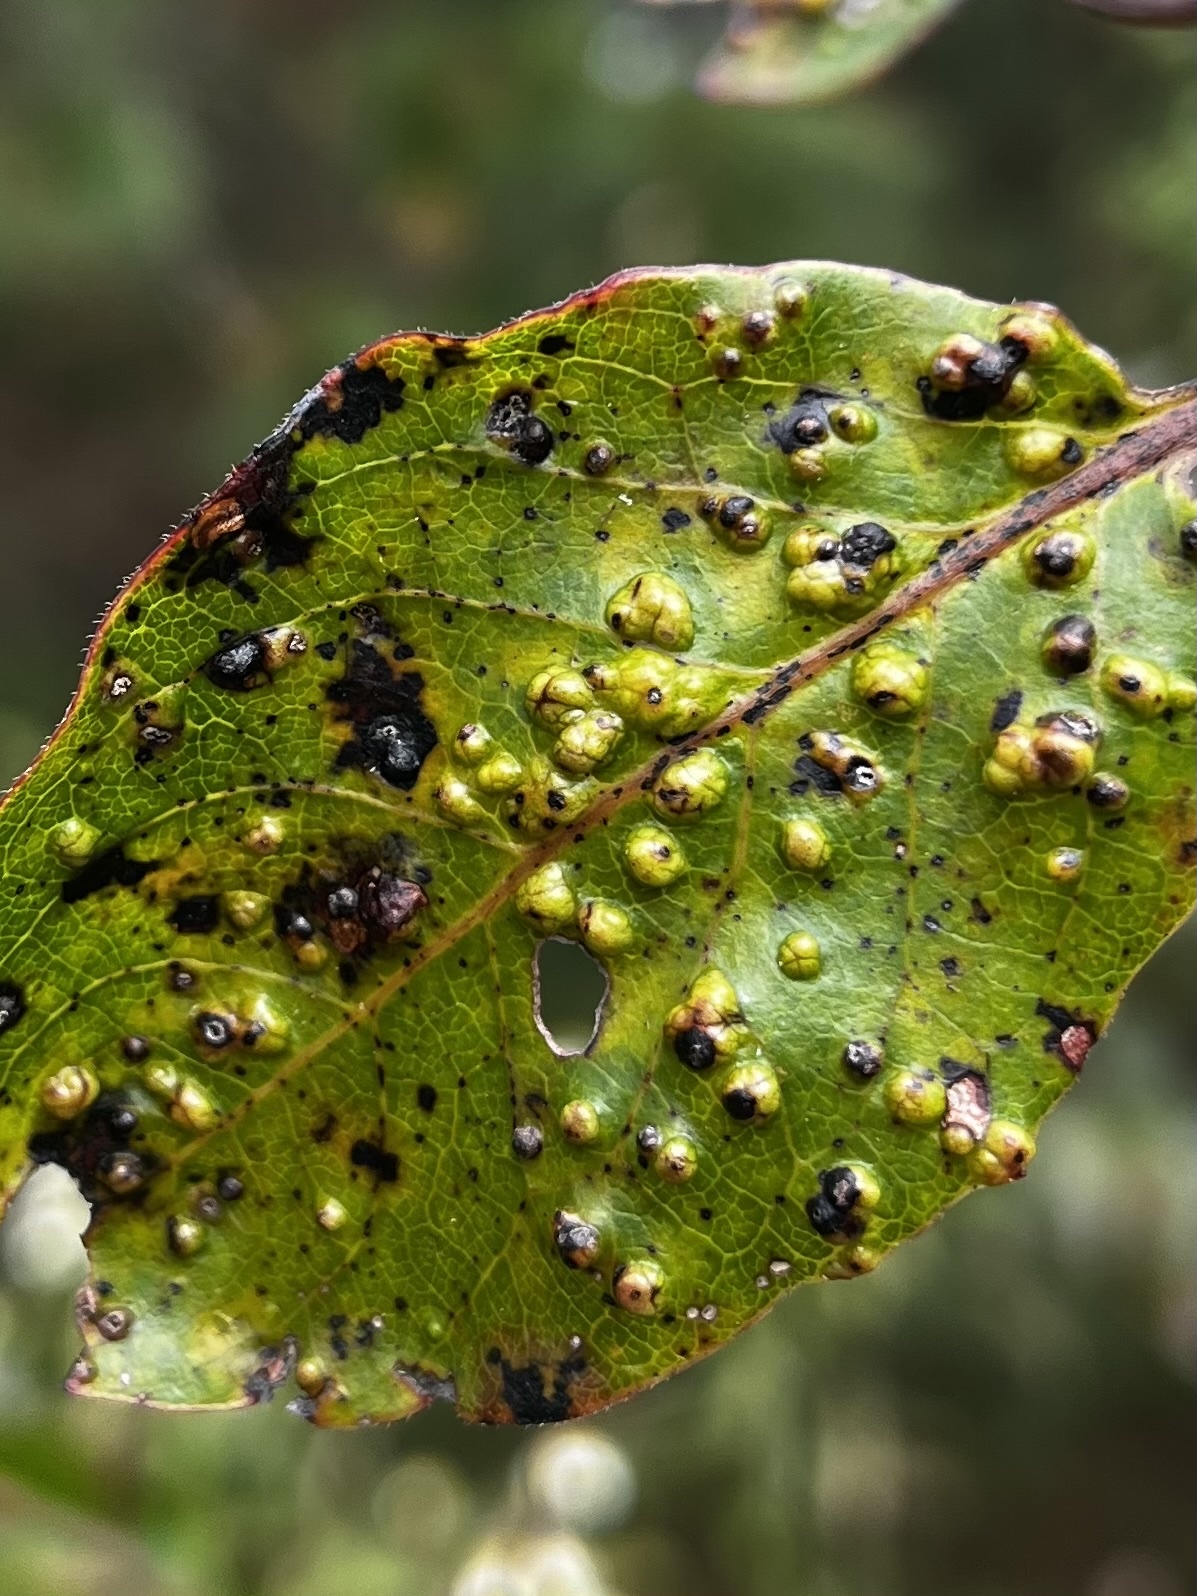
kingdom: Animalia
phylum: Arthropoda
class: Arachnida
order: Trombidiformes
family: Eriophyidae
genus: Aceria
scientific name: Aceria
